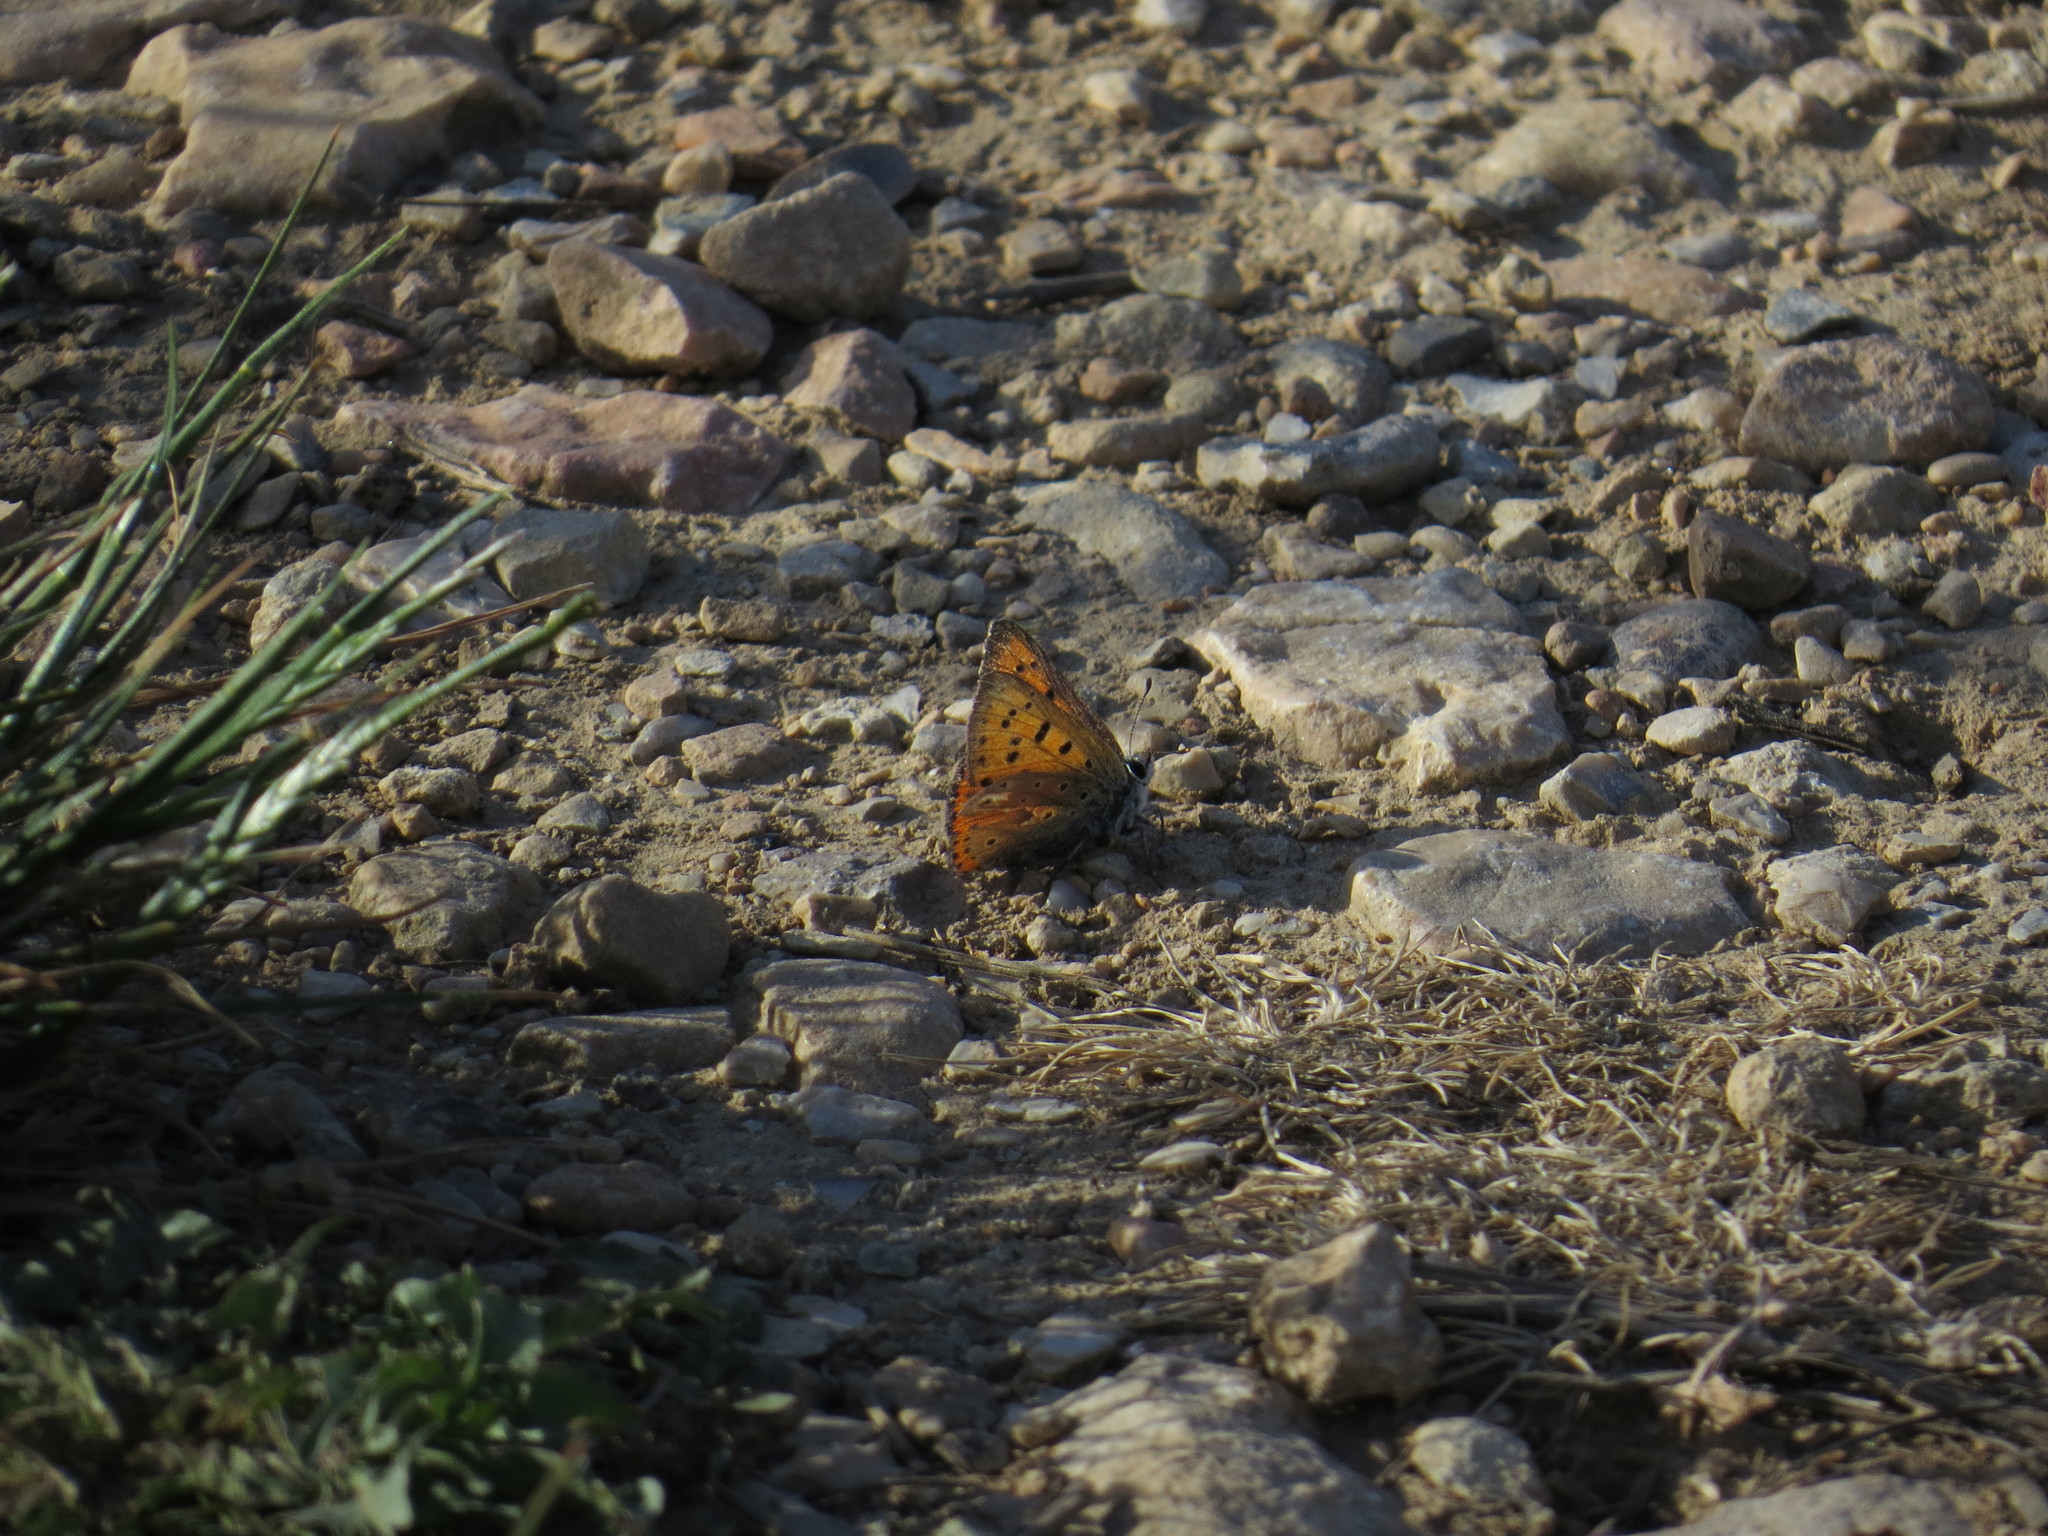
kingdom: Animalia
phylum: Arthropoda
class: Insecta
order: Lepidoptera
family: Lycaenidae
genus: Lycaena
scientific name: Lycaena alciphron
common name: Purple-shot copper
